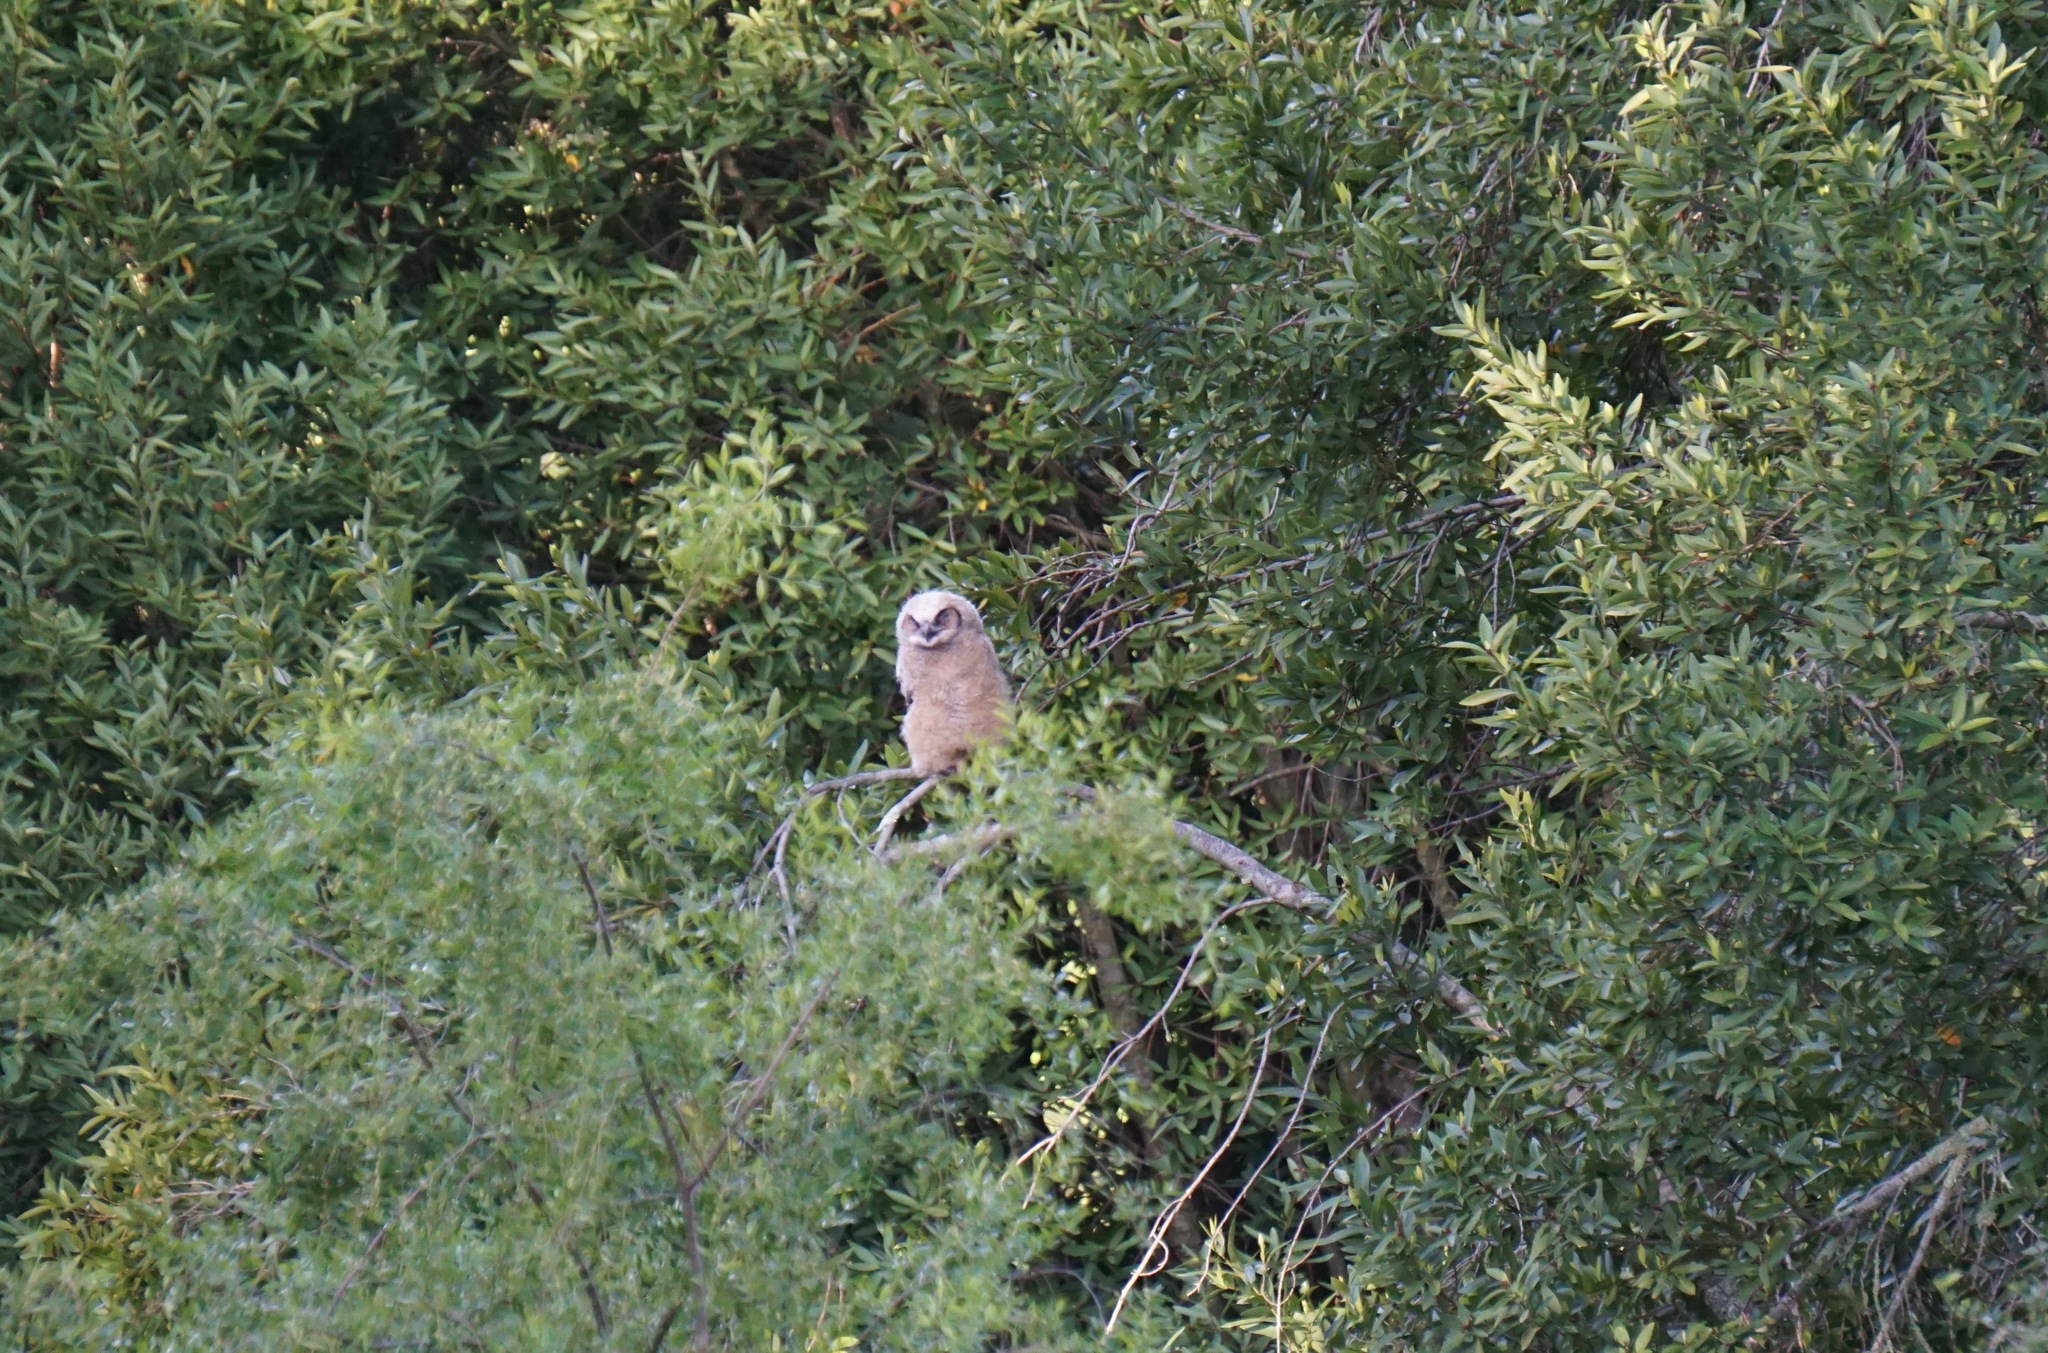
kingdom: Animalia
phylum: Chordata
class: Aves
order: Strigiformes
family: Strigidae
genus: Bubo
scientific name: Bubo virginianus
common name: Great horned owl
